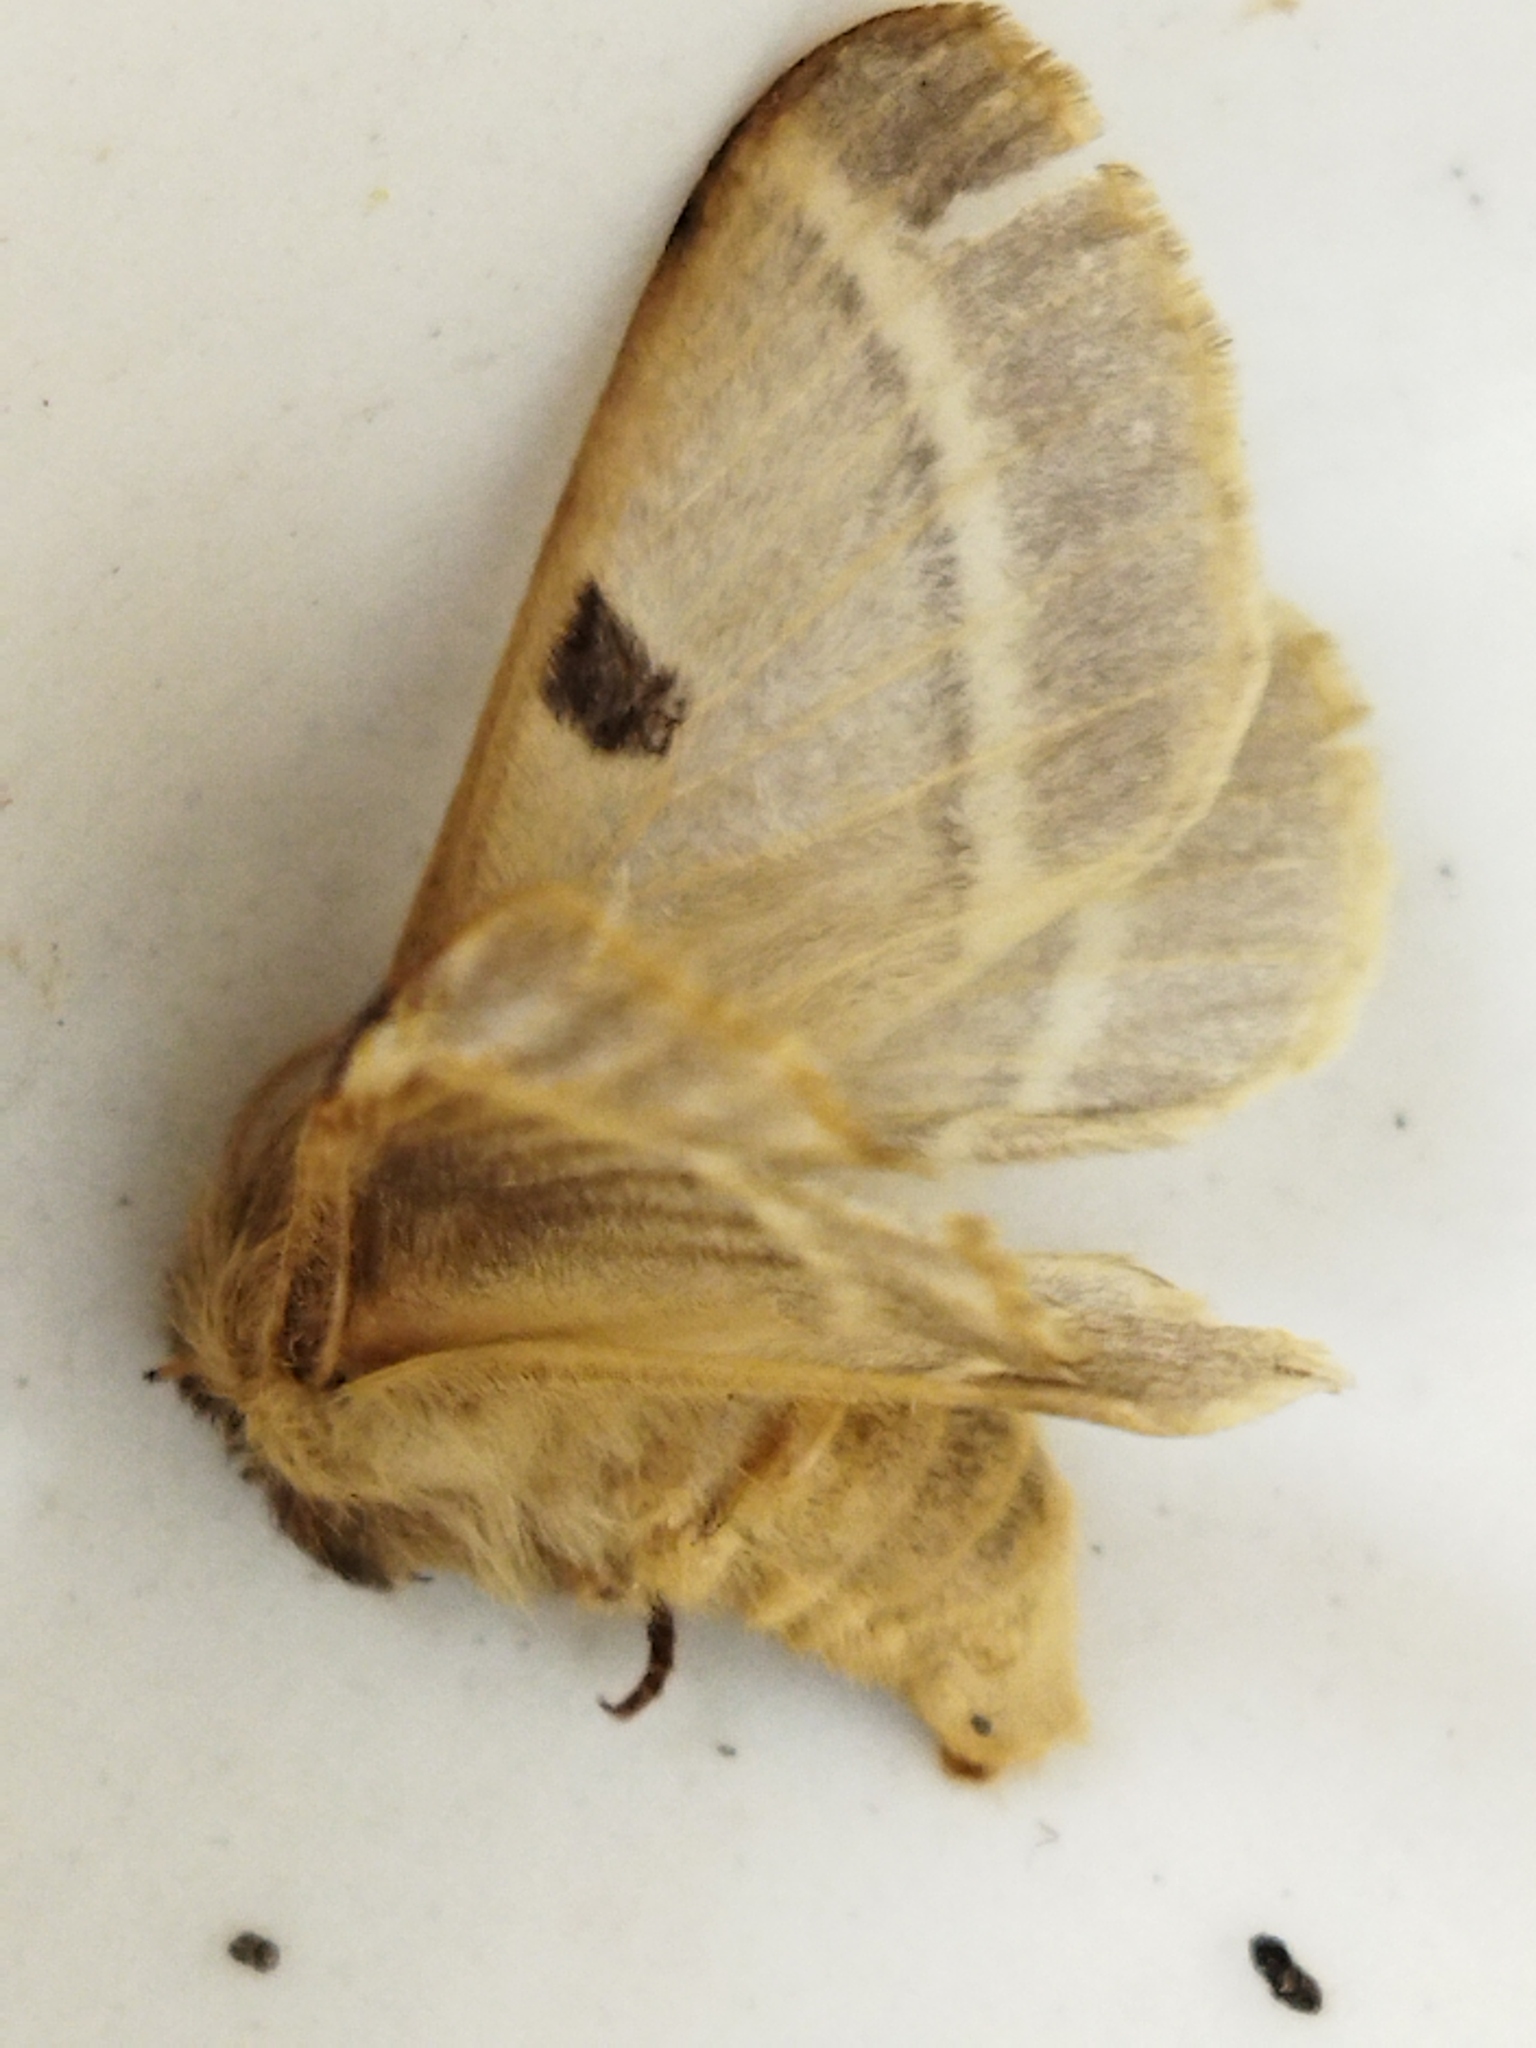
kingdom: Animalia
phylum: Arthropoda
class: Insecta
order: Lepidoptera
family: Brahmaeidae
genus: Lemonia
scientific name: Lemonia balcanica
